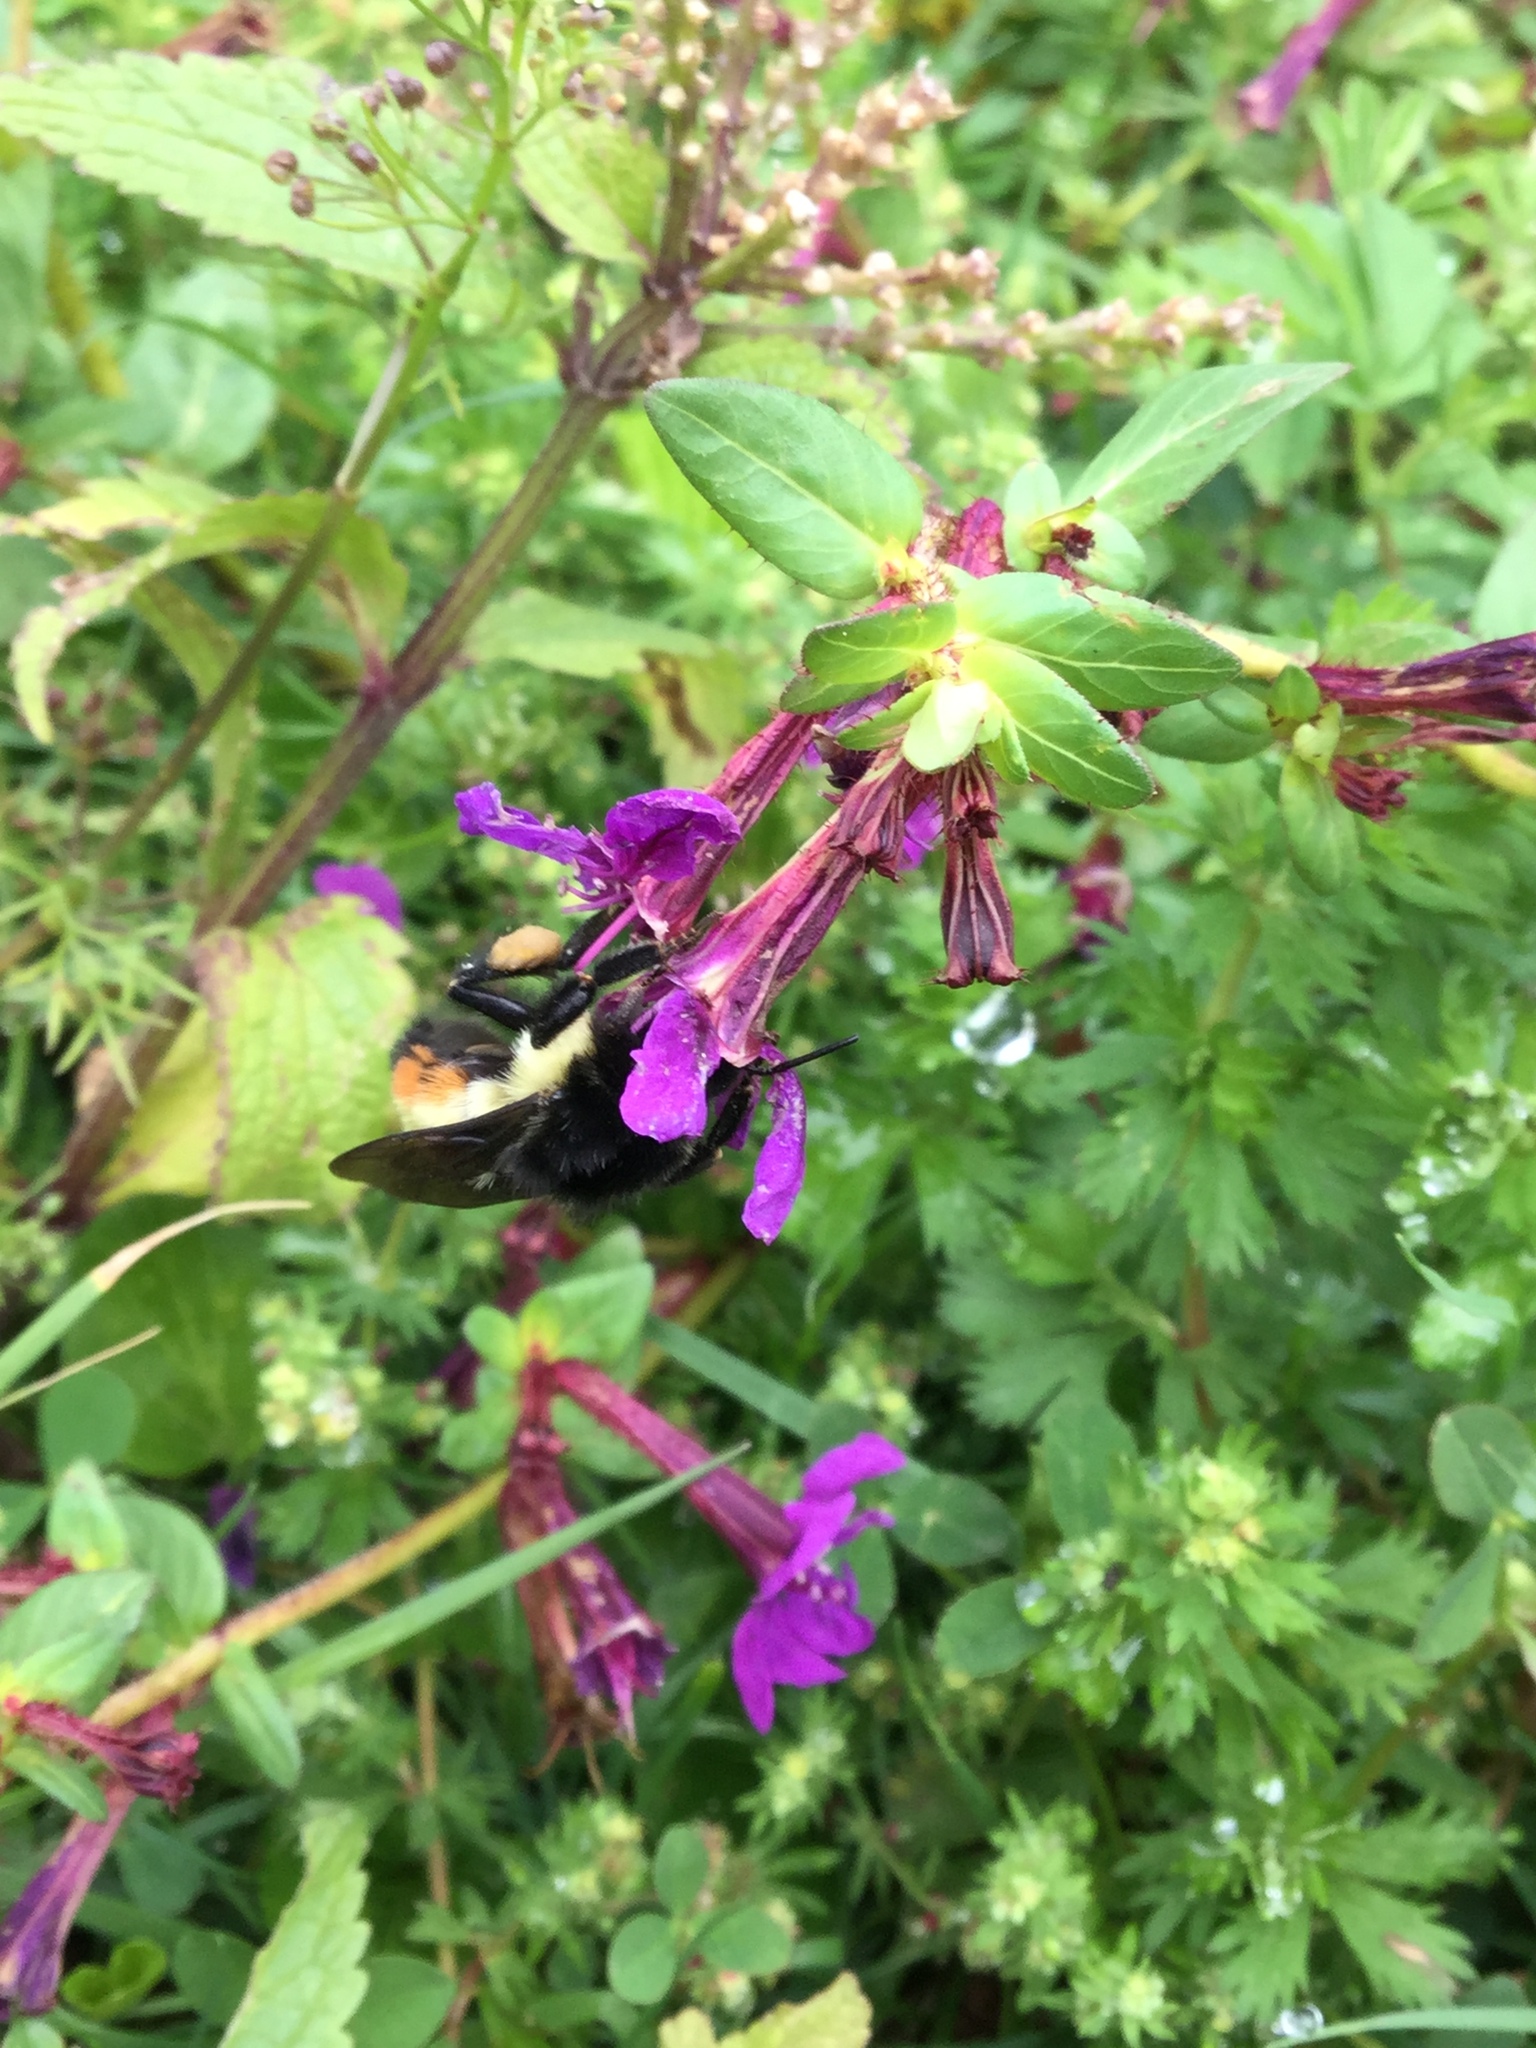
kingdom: Animalia
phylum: Arthropoda
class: Insecta
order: Hymenoptera
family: Apidae
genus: Bombus
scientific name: Bombus ephippiatus
